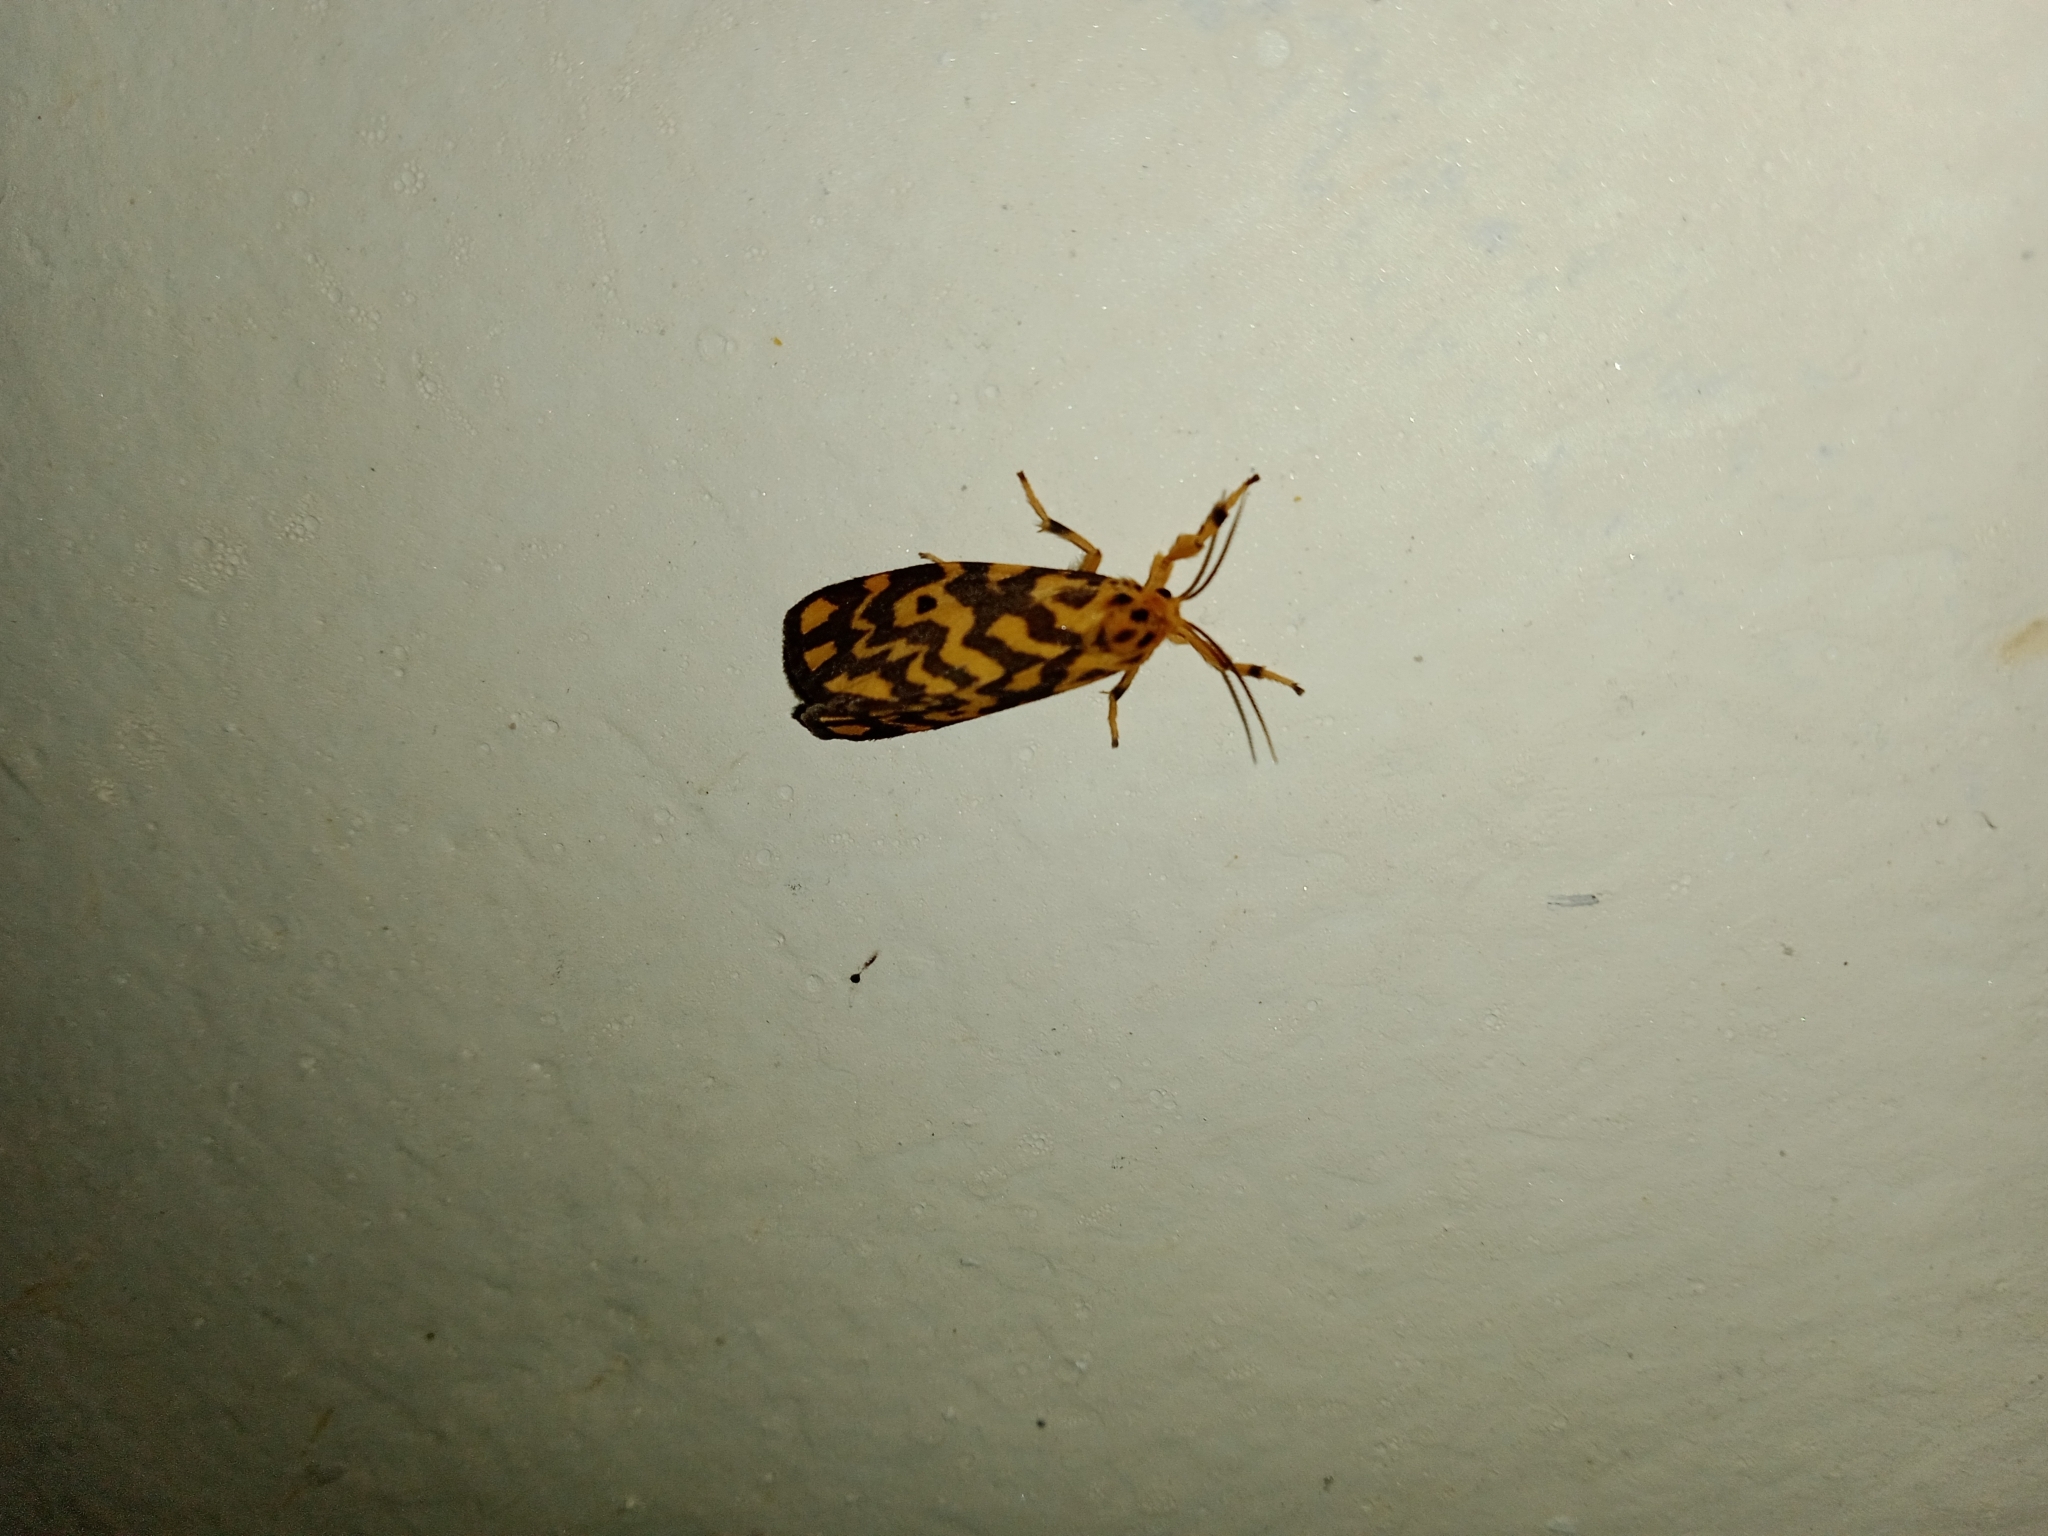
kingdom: Animalia
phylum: Arthropoda
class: Insecta
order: Lepidoptera
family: Erebidae
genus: Nepita
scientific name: Nepita conferta
